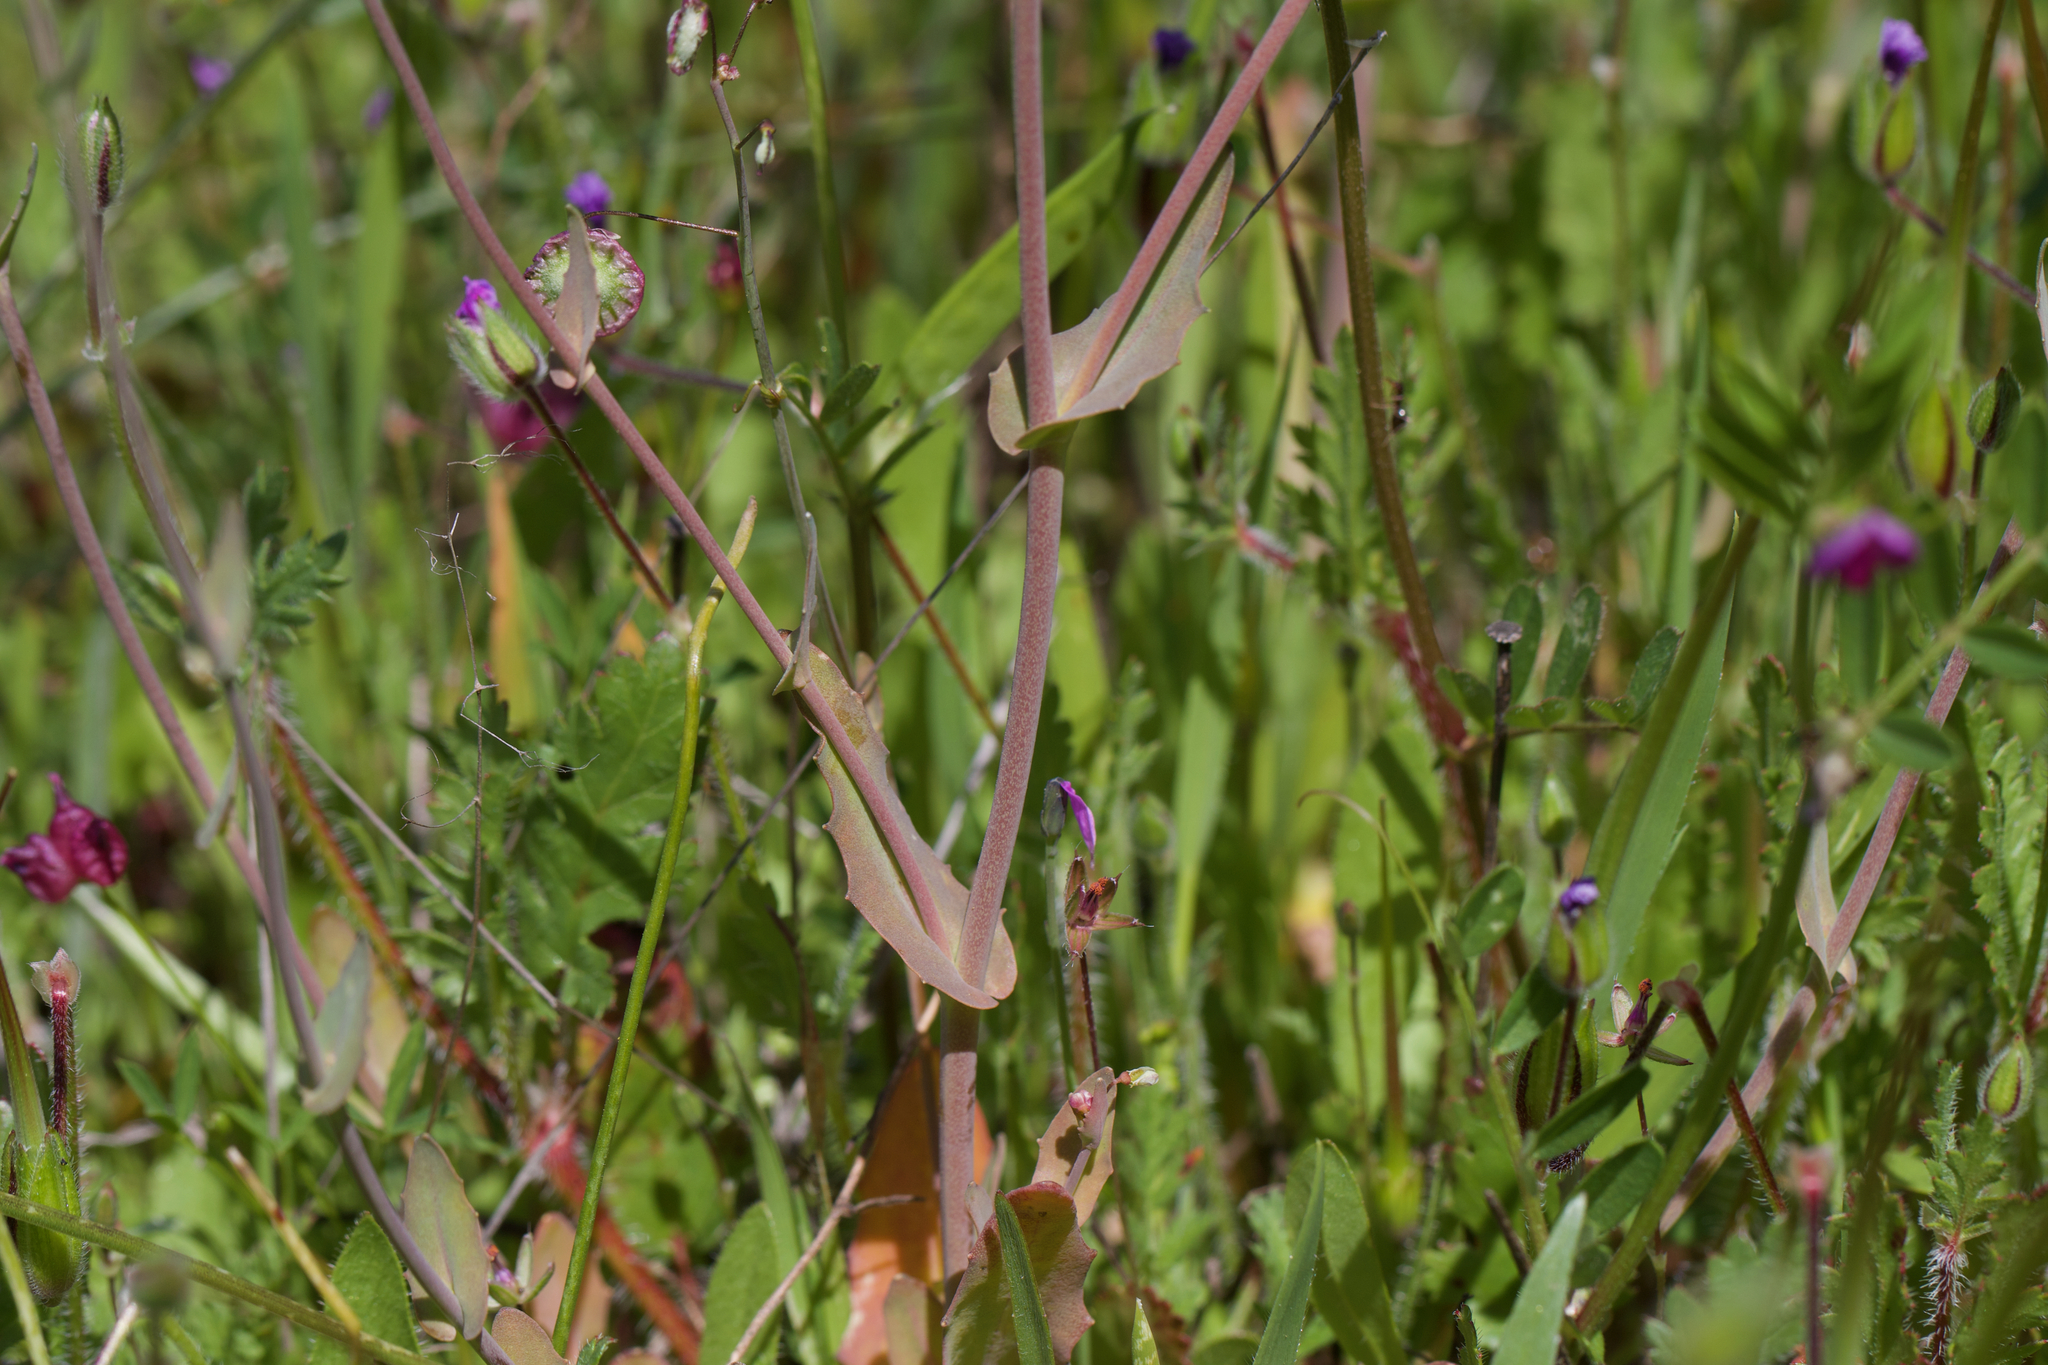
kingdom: Plantae
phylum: Tracheophyta
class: Magnoliopsida
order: Brassicales
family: Brassicaceae
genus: Thysanocarpus
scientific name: Thysanocarpus radians
